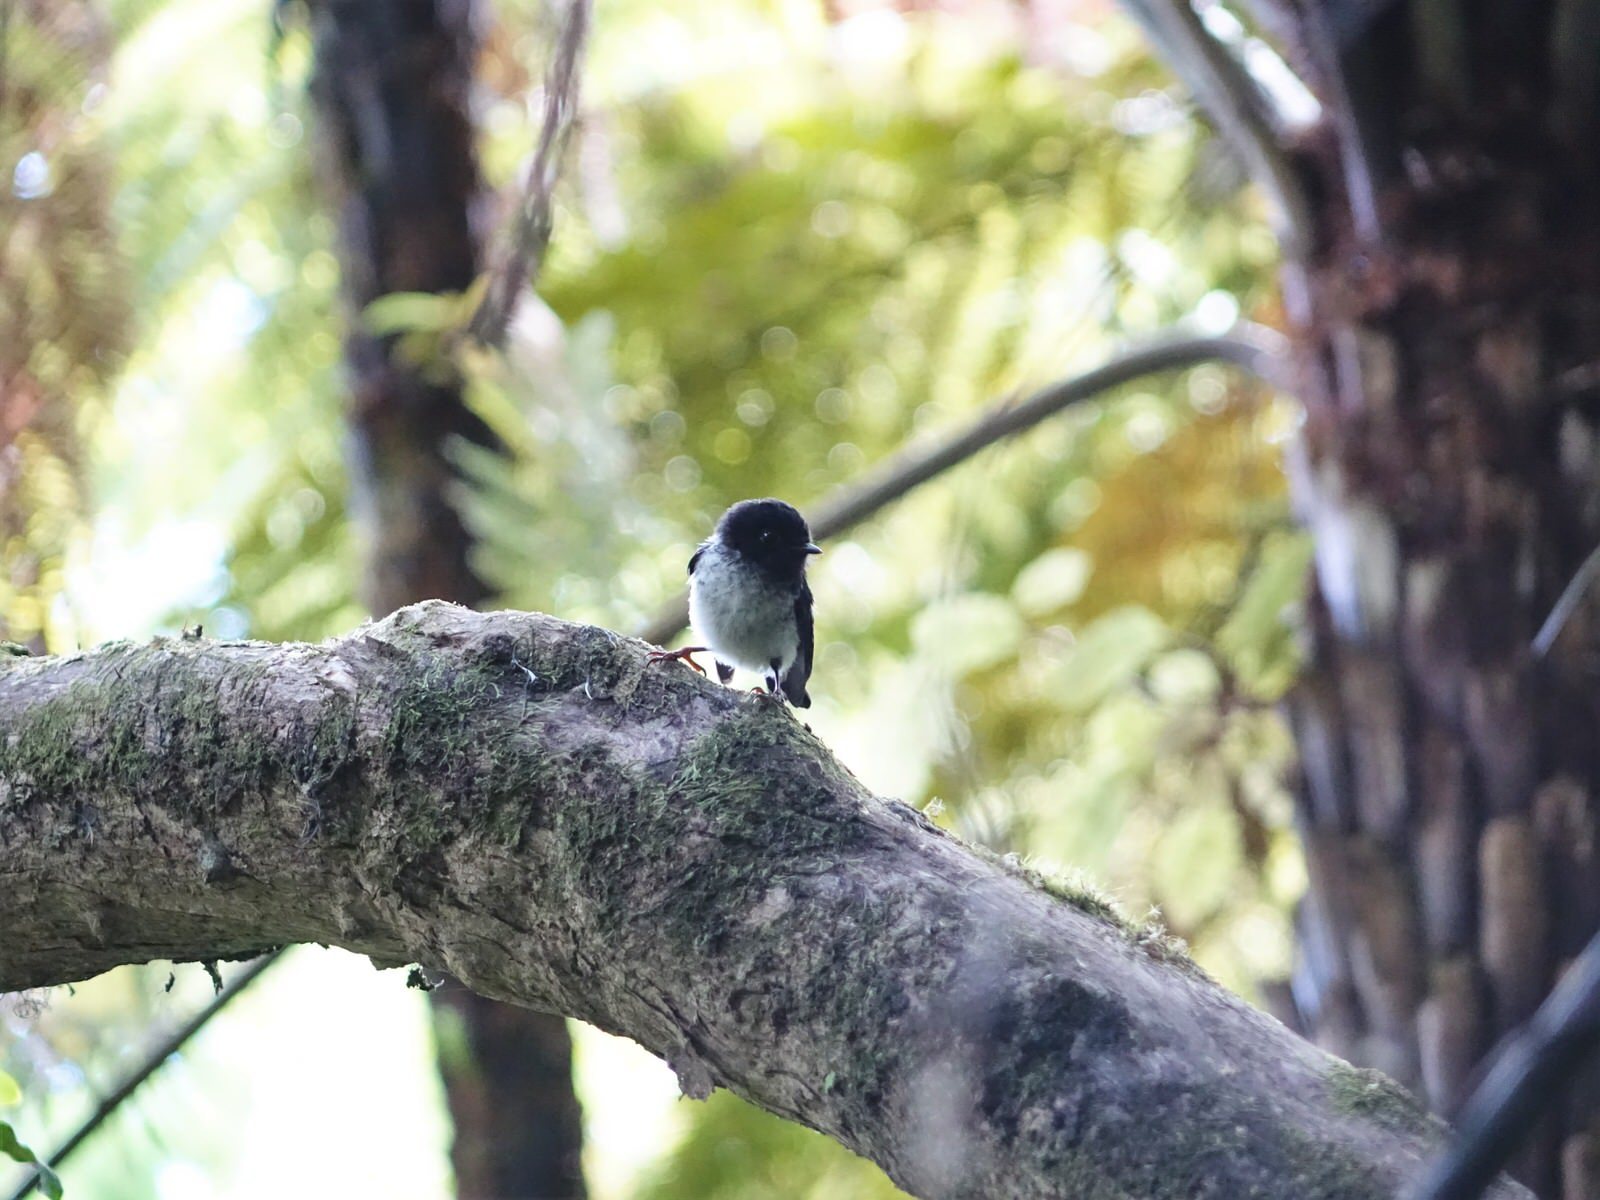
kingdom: Animalia
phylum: Chordata
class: Aves
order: Passeriformes
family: Petroicidae
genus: Petroica
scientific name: Petroica macrocephala
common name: Tomtit
